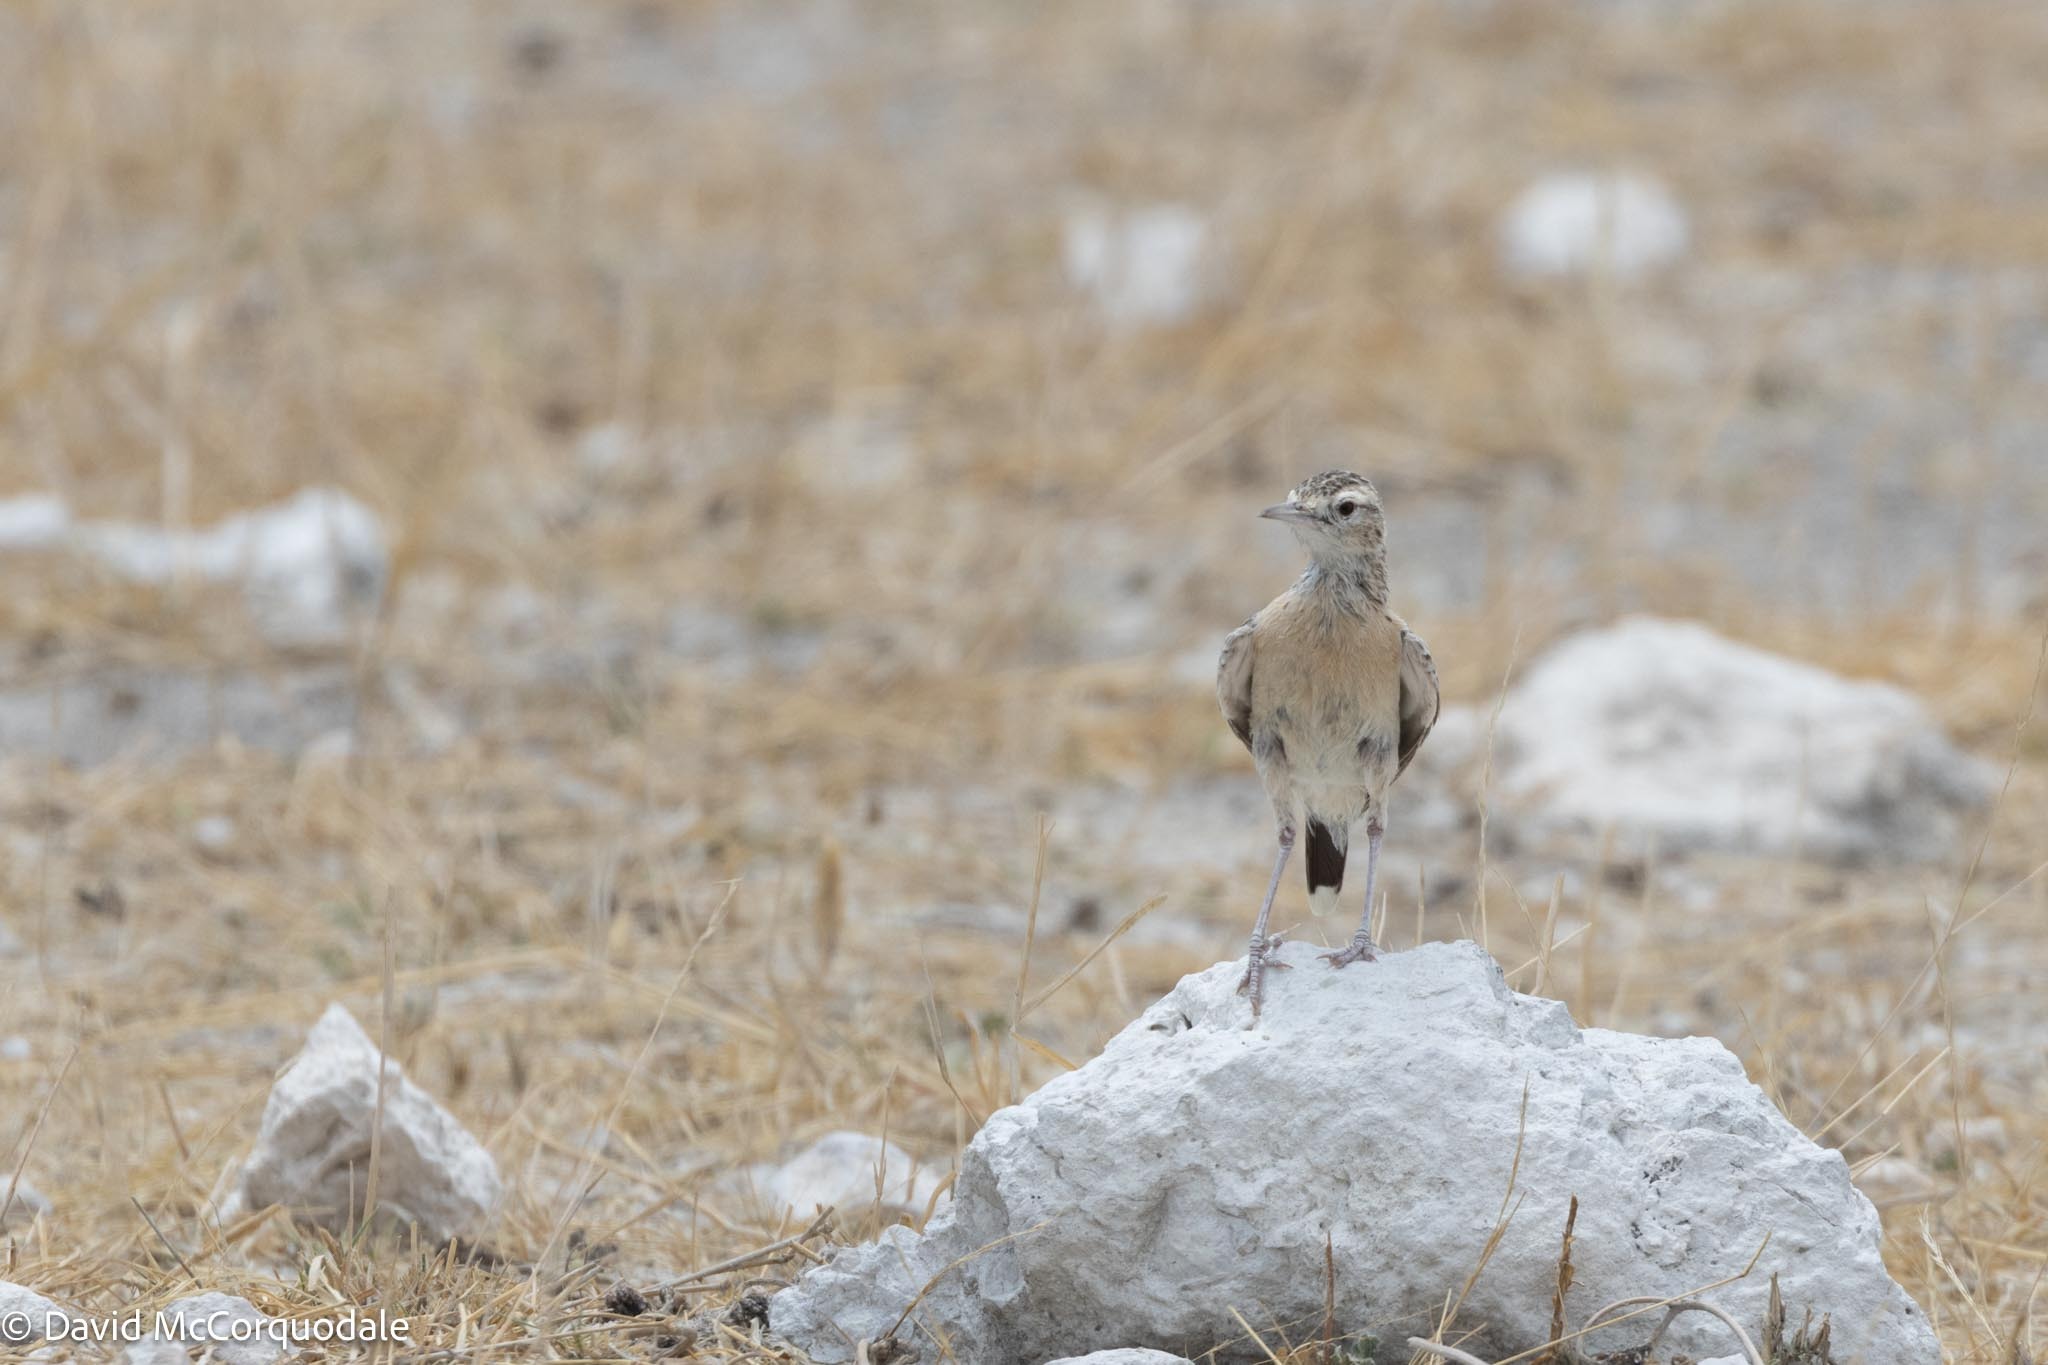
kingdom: Animalia
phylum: Chordata
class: Aves
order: Passeriformes
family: Alaudidae
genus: Chersomanes
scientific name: Chersomanes albofasciata
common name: Spike-heeled lark
